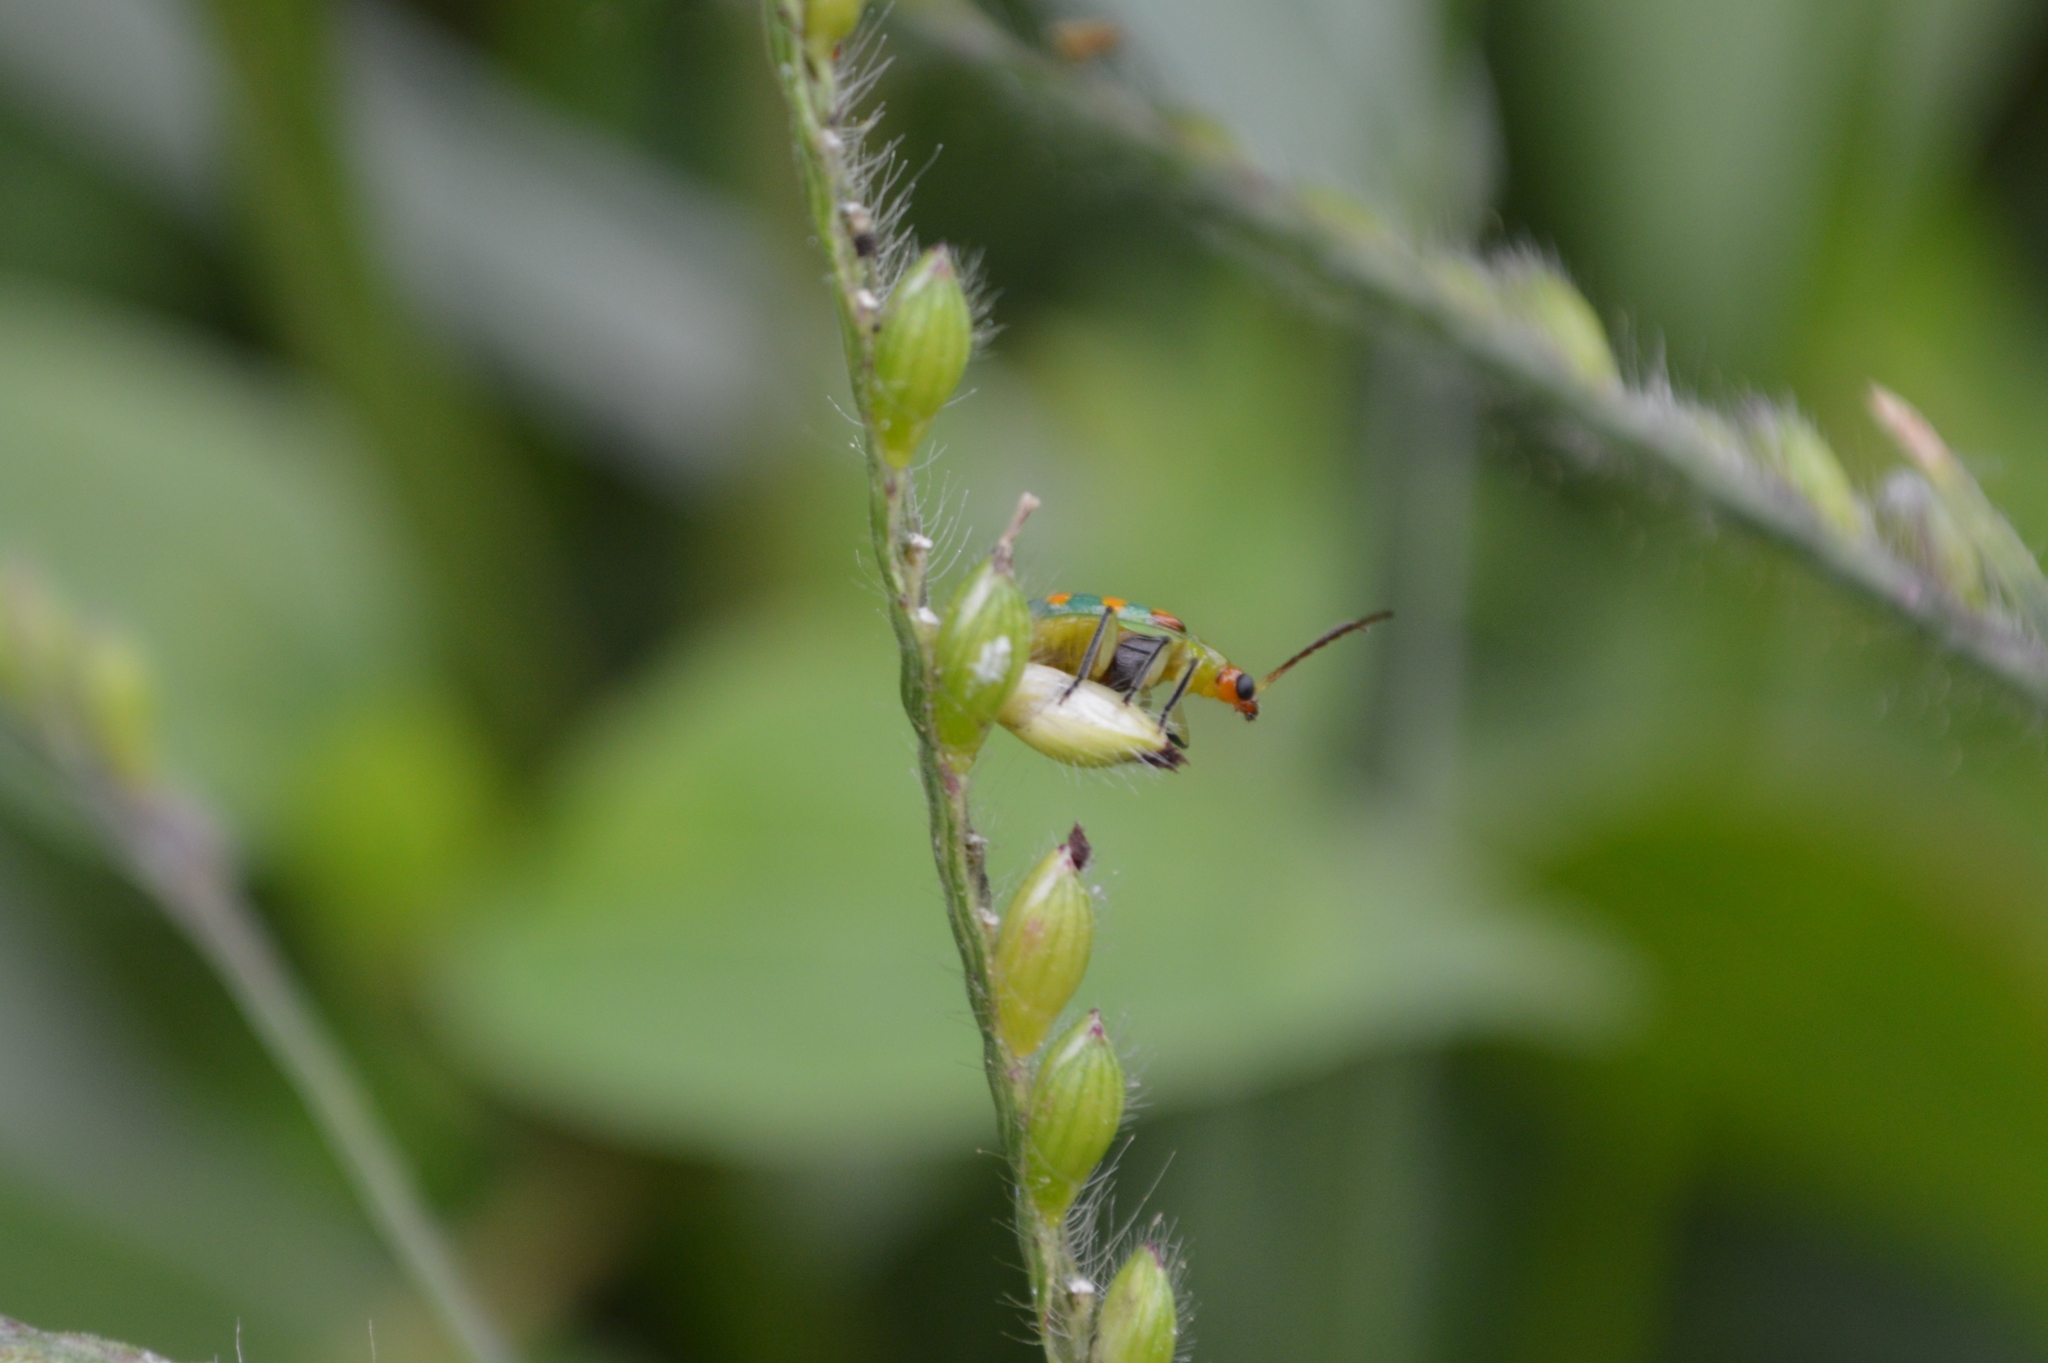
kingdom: Animalia
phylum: Arthropoda
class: Insecta
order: Coleoptera
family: Chrysomelidae
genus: Diabrotica
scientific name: Diabrotica speciosa
